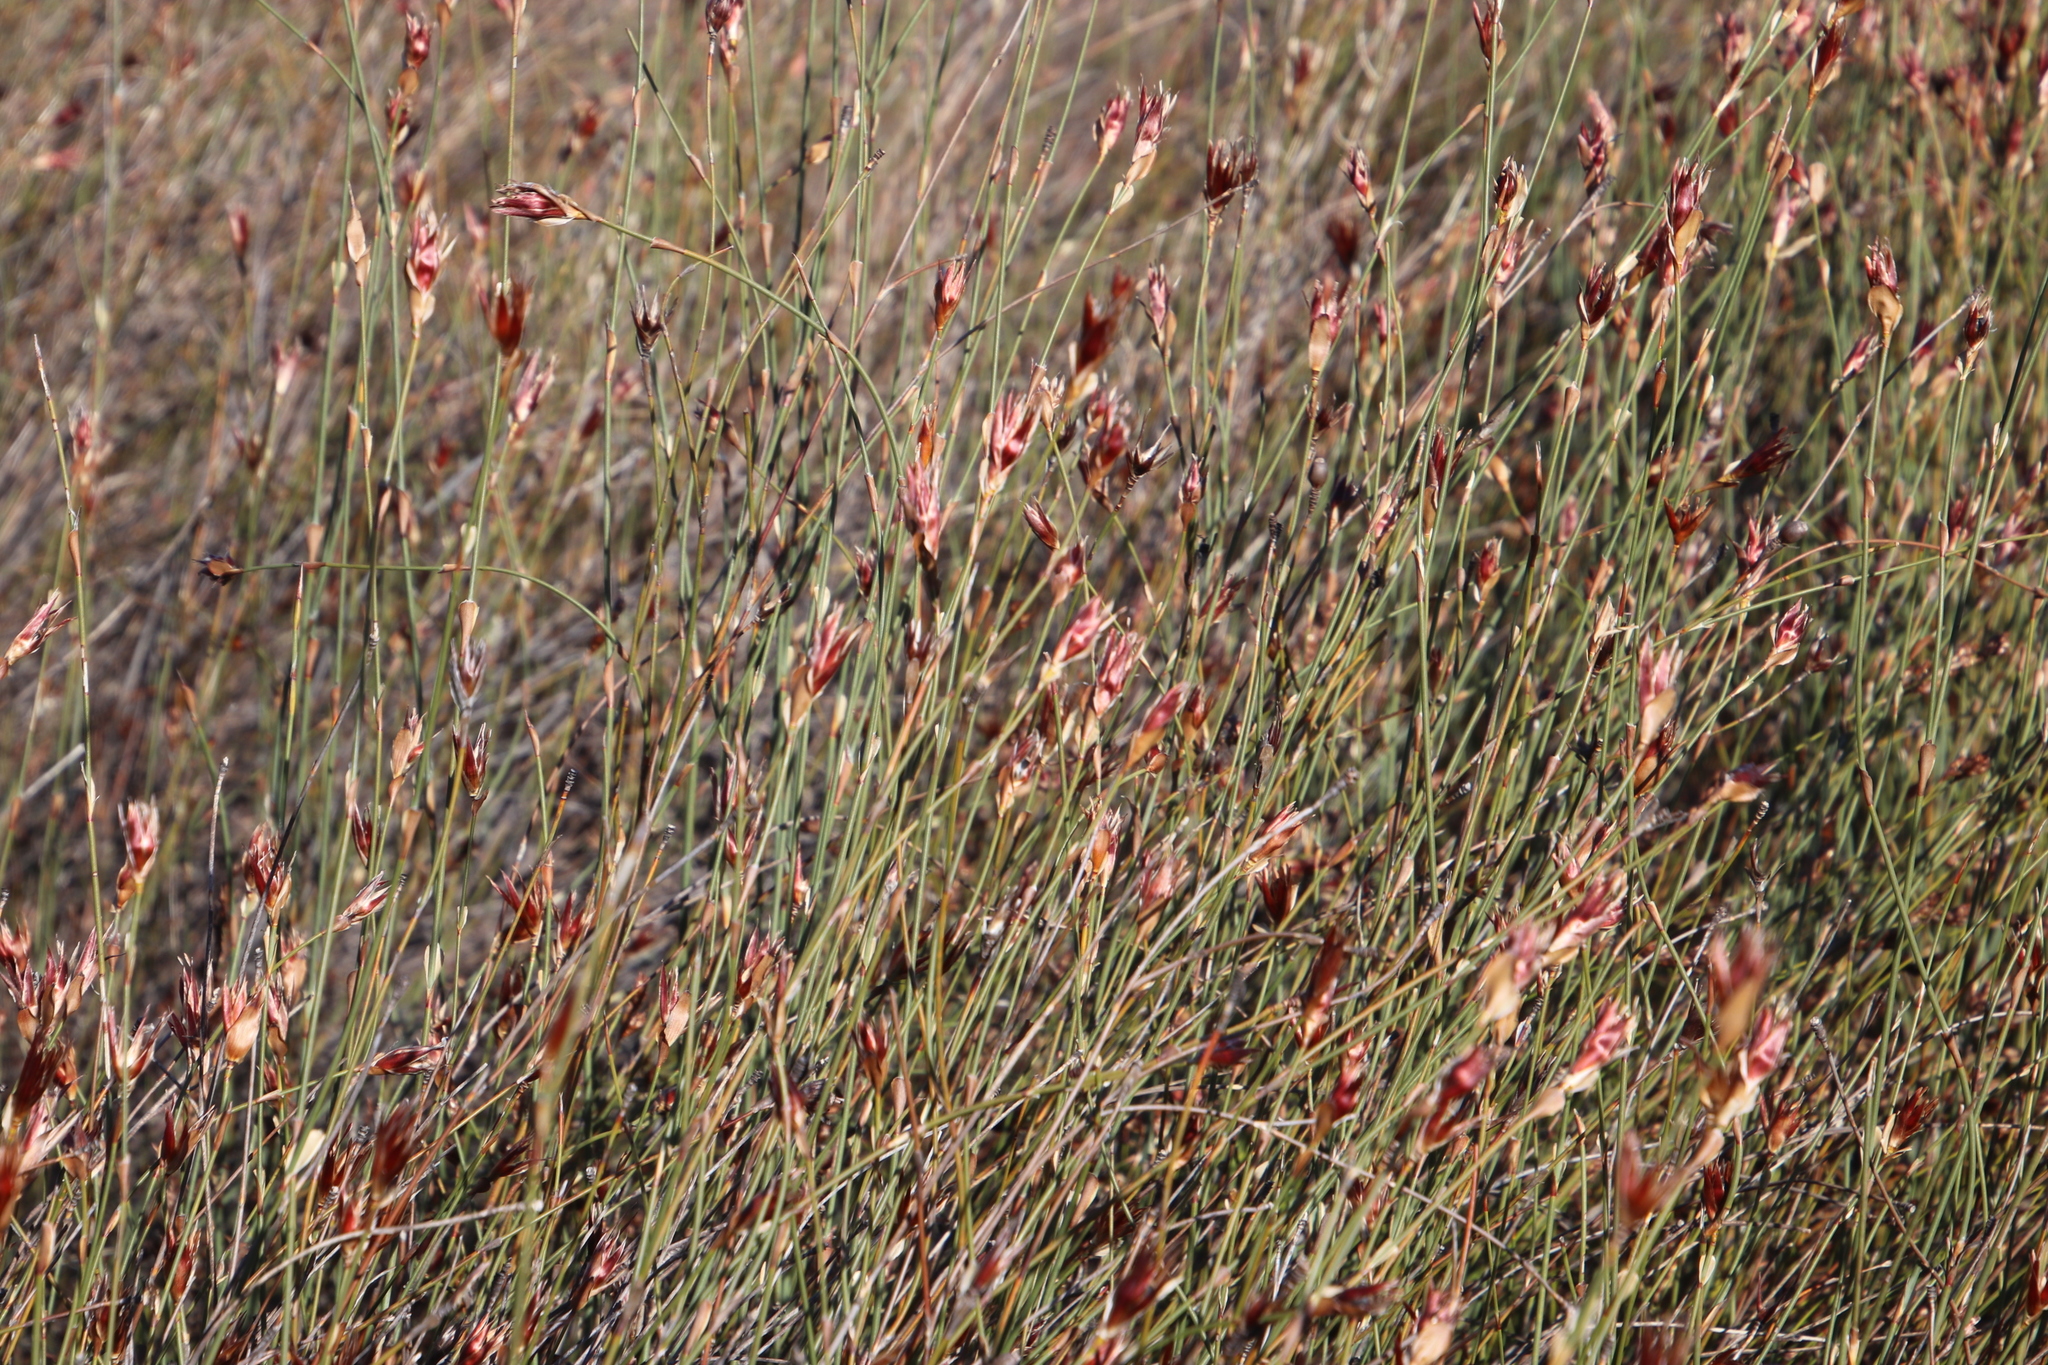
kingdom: Plantae
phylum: Tracheophyta
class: Liliopsida
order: Poales
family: Restionaceae
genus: Willdenowia
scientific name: Willdenowia incurvata
